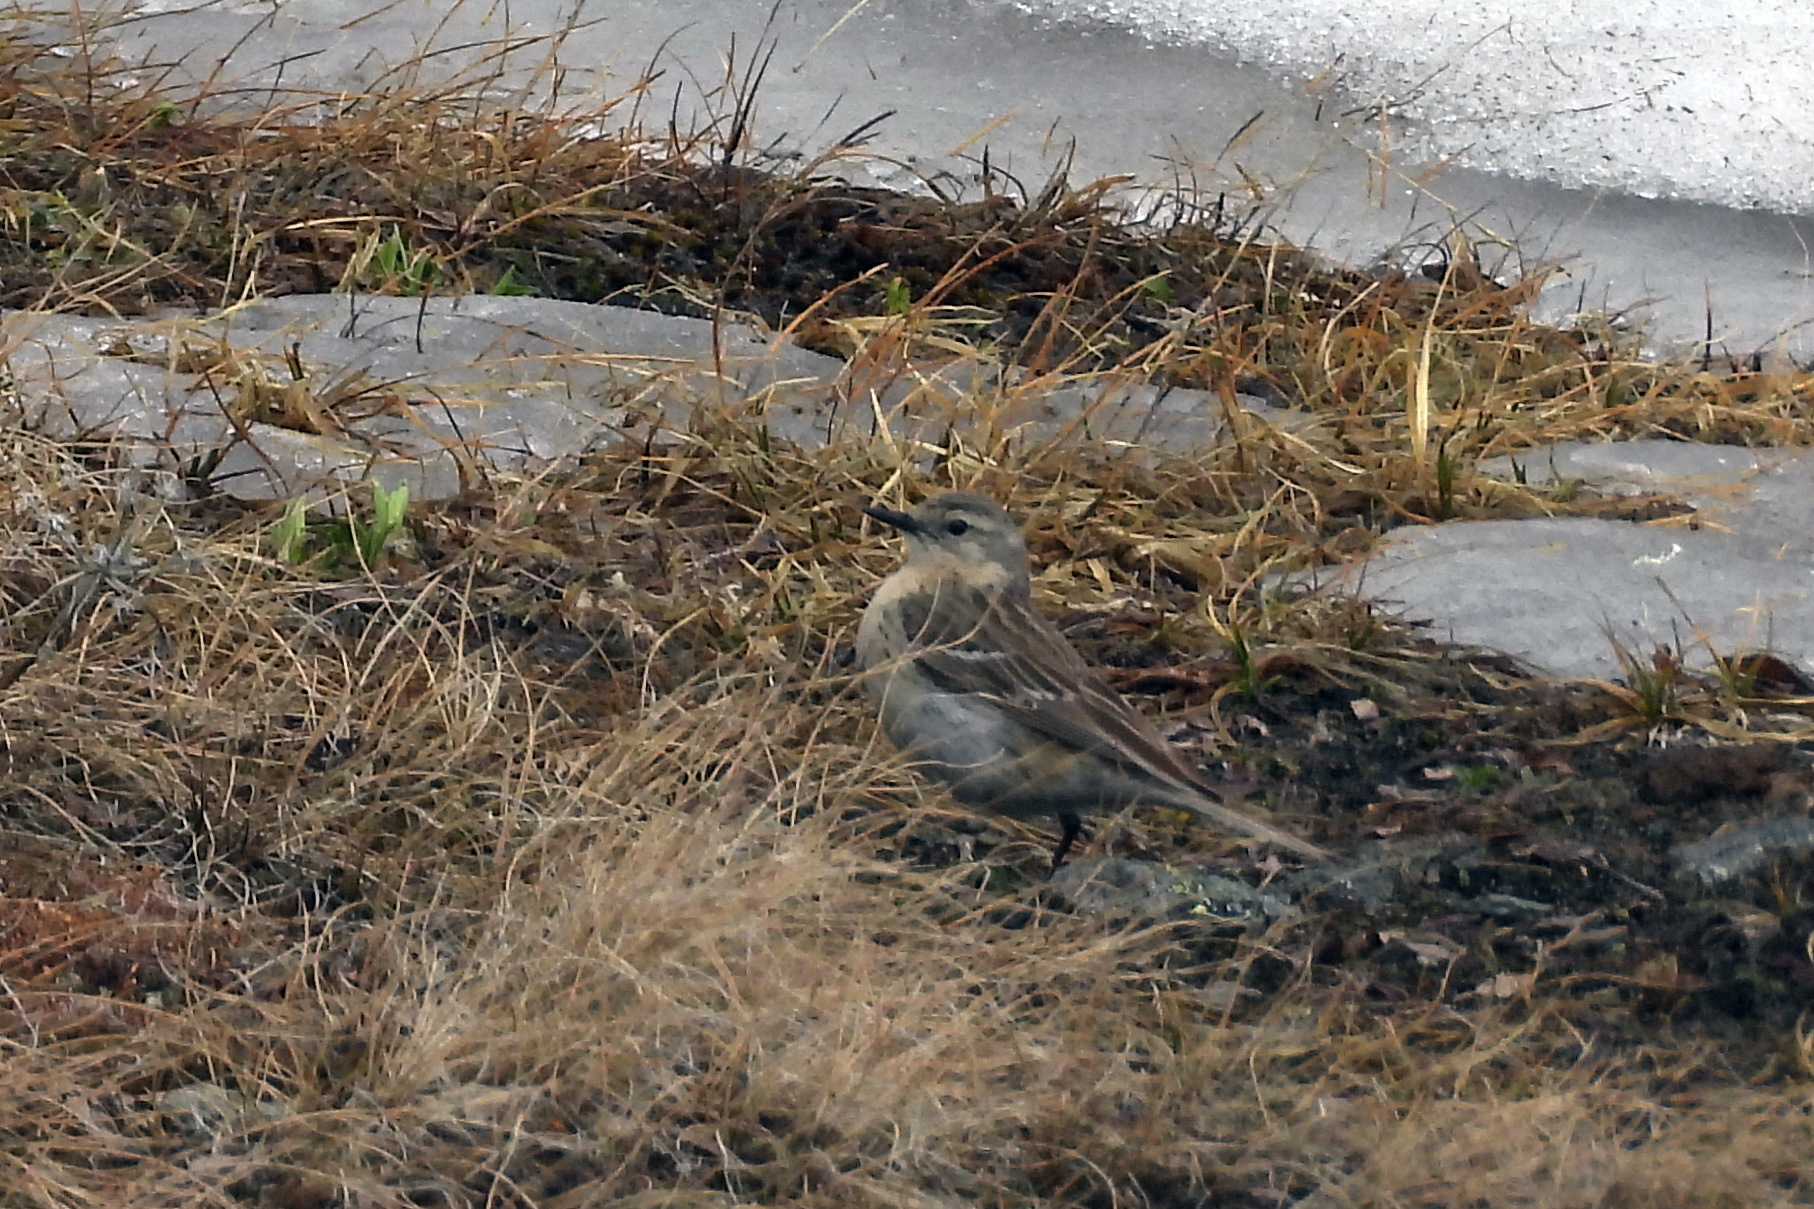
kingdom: Animalia
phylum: Chordata
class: Aves
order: Passeriformes
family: Motacillidae
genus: Anthus
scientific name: Anthus spinoletta
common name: Water pipit
